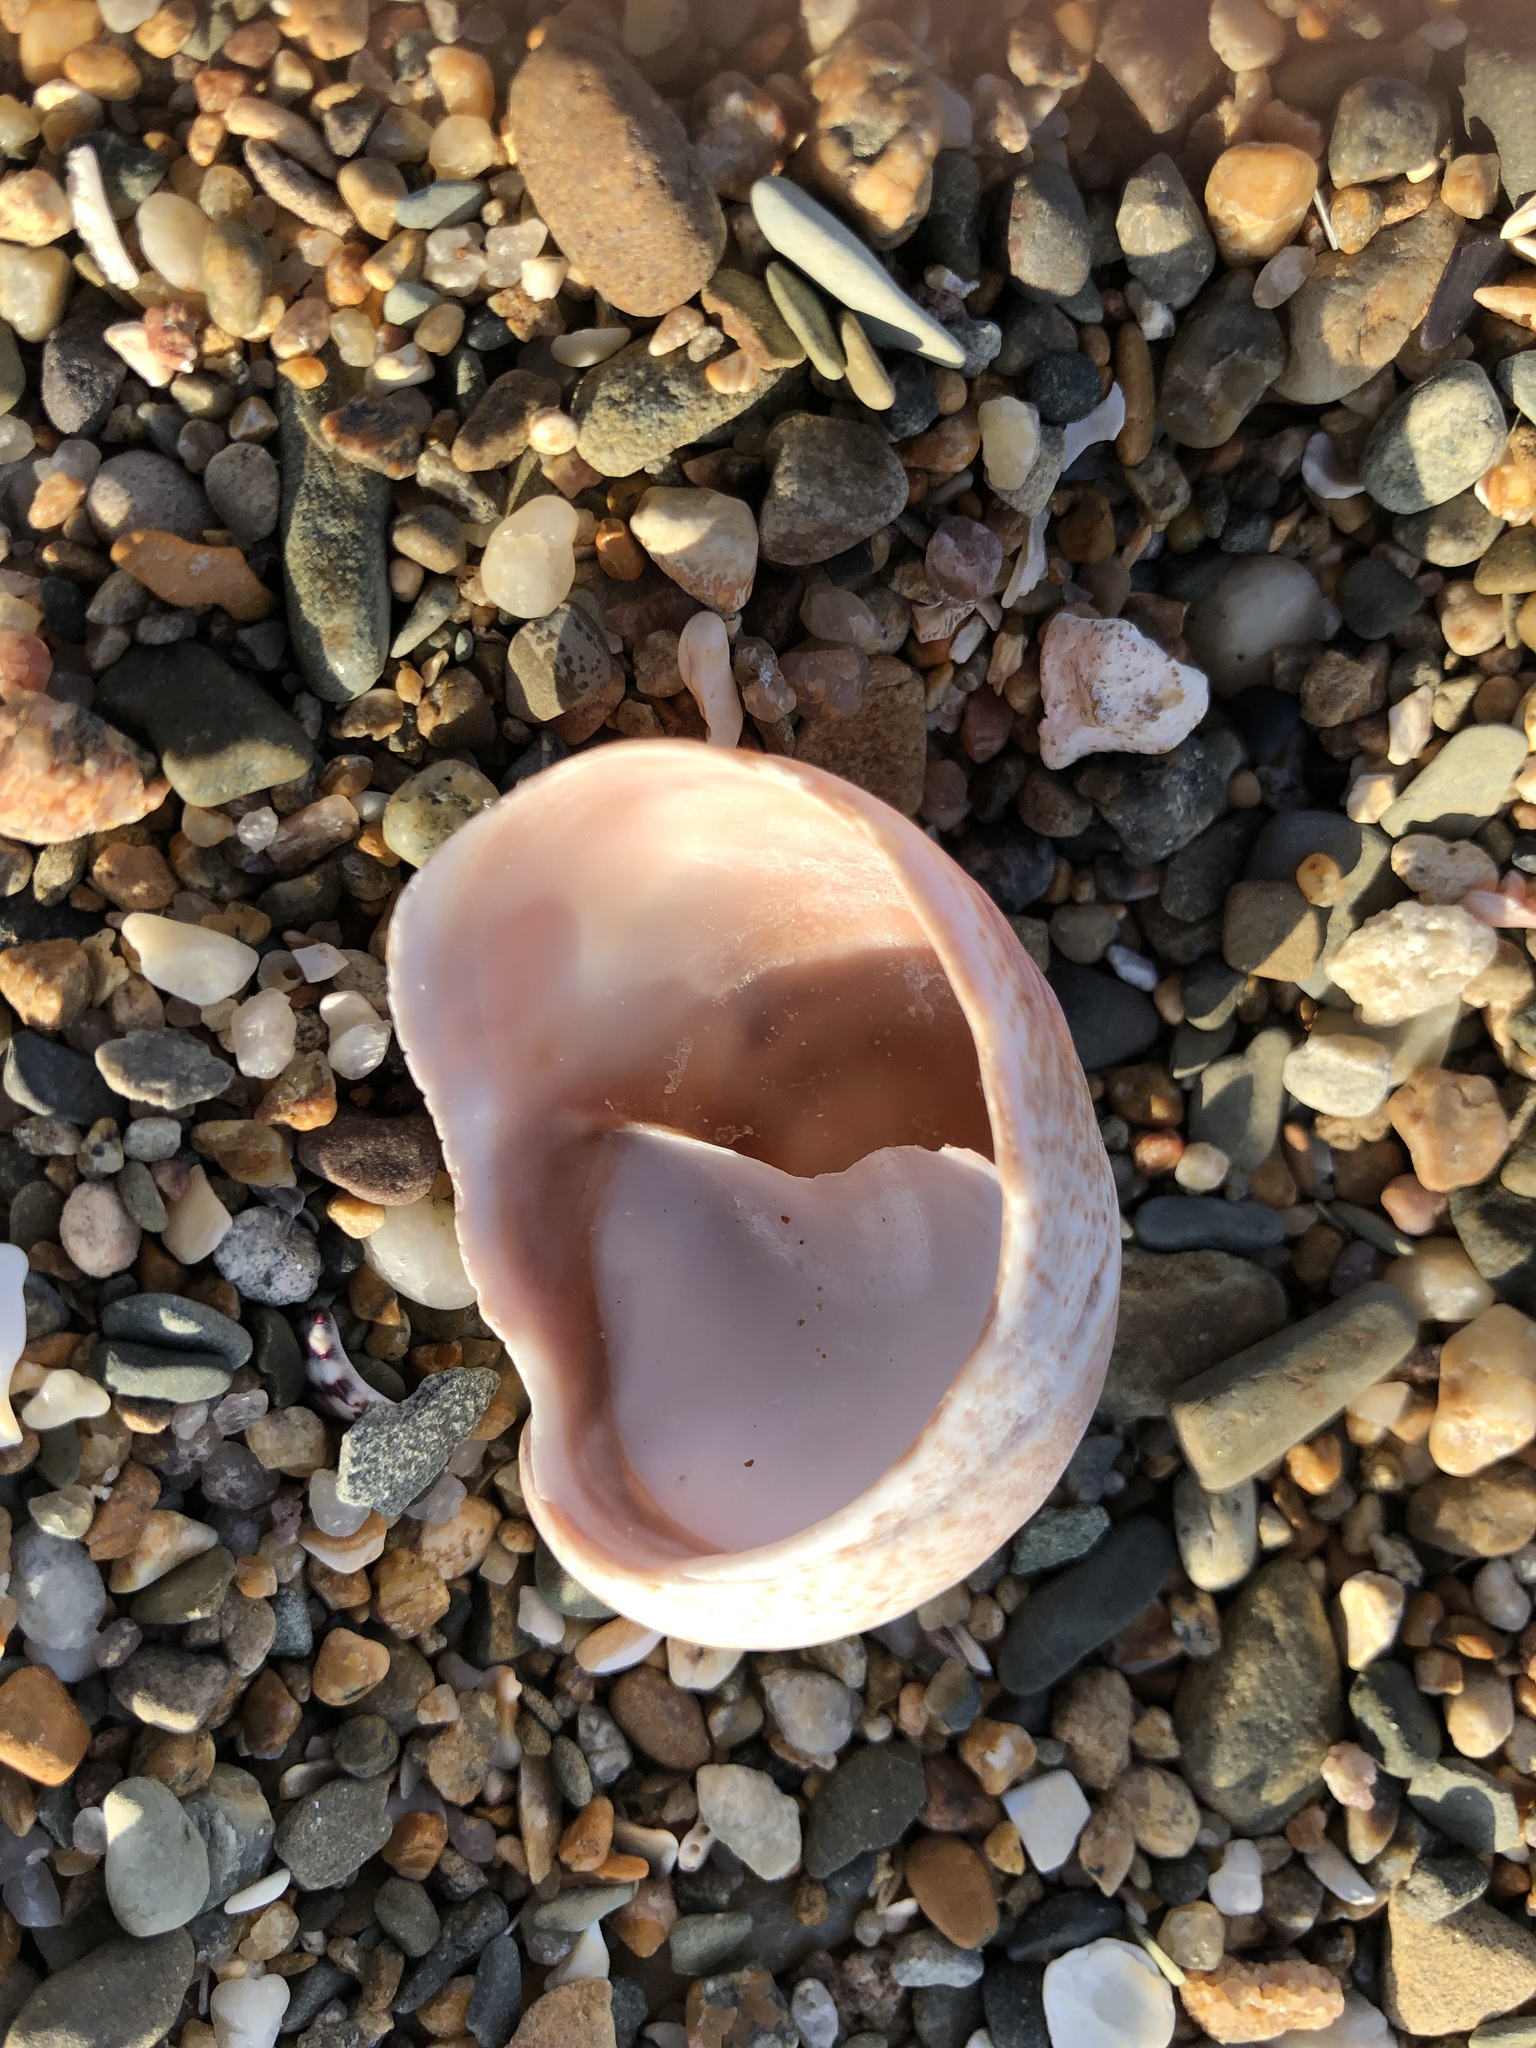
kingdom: Animalia
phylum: Mollusca
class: Gastropoda
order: Littorinimorpha
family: Calyptraeidae
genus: Crepidula
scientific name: Crepidula fornicata
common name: Slipper limpet
